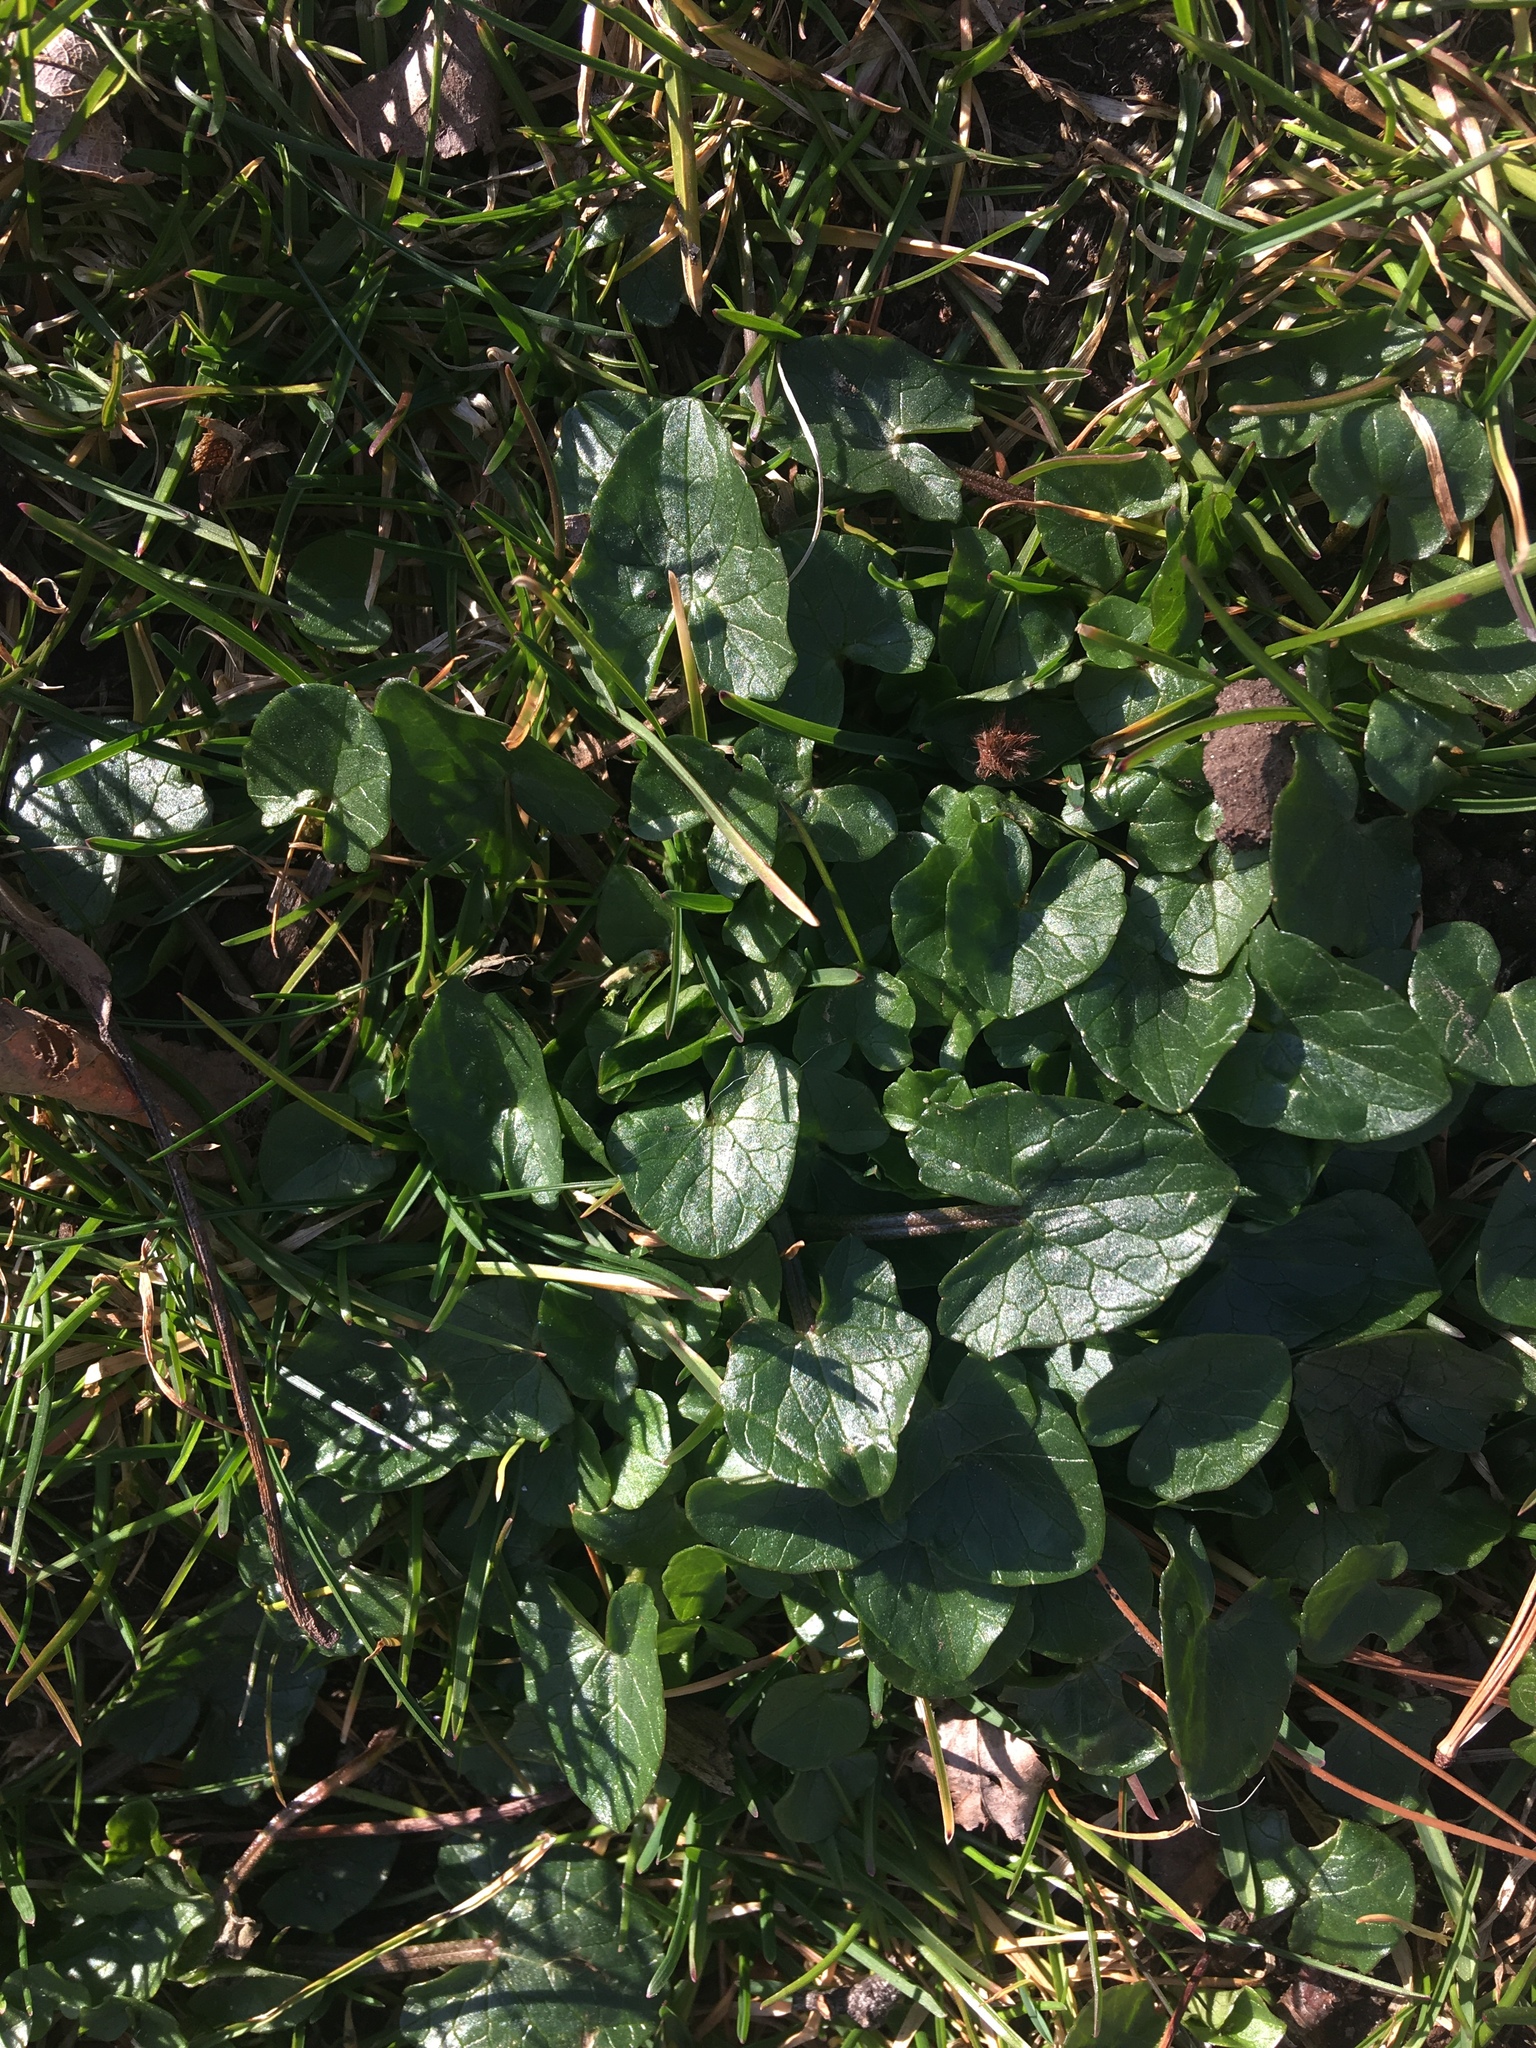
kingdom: Plantae
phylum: Tracheophyta
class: Magnoliopsida
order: Ranunculales
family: Ranunculaceae
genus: Ficaria
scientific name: Ficaria verna
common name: Lesser celandine
